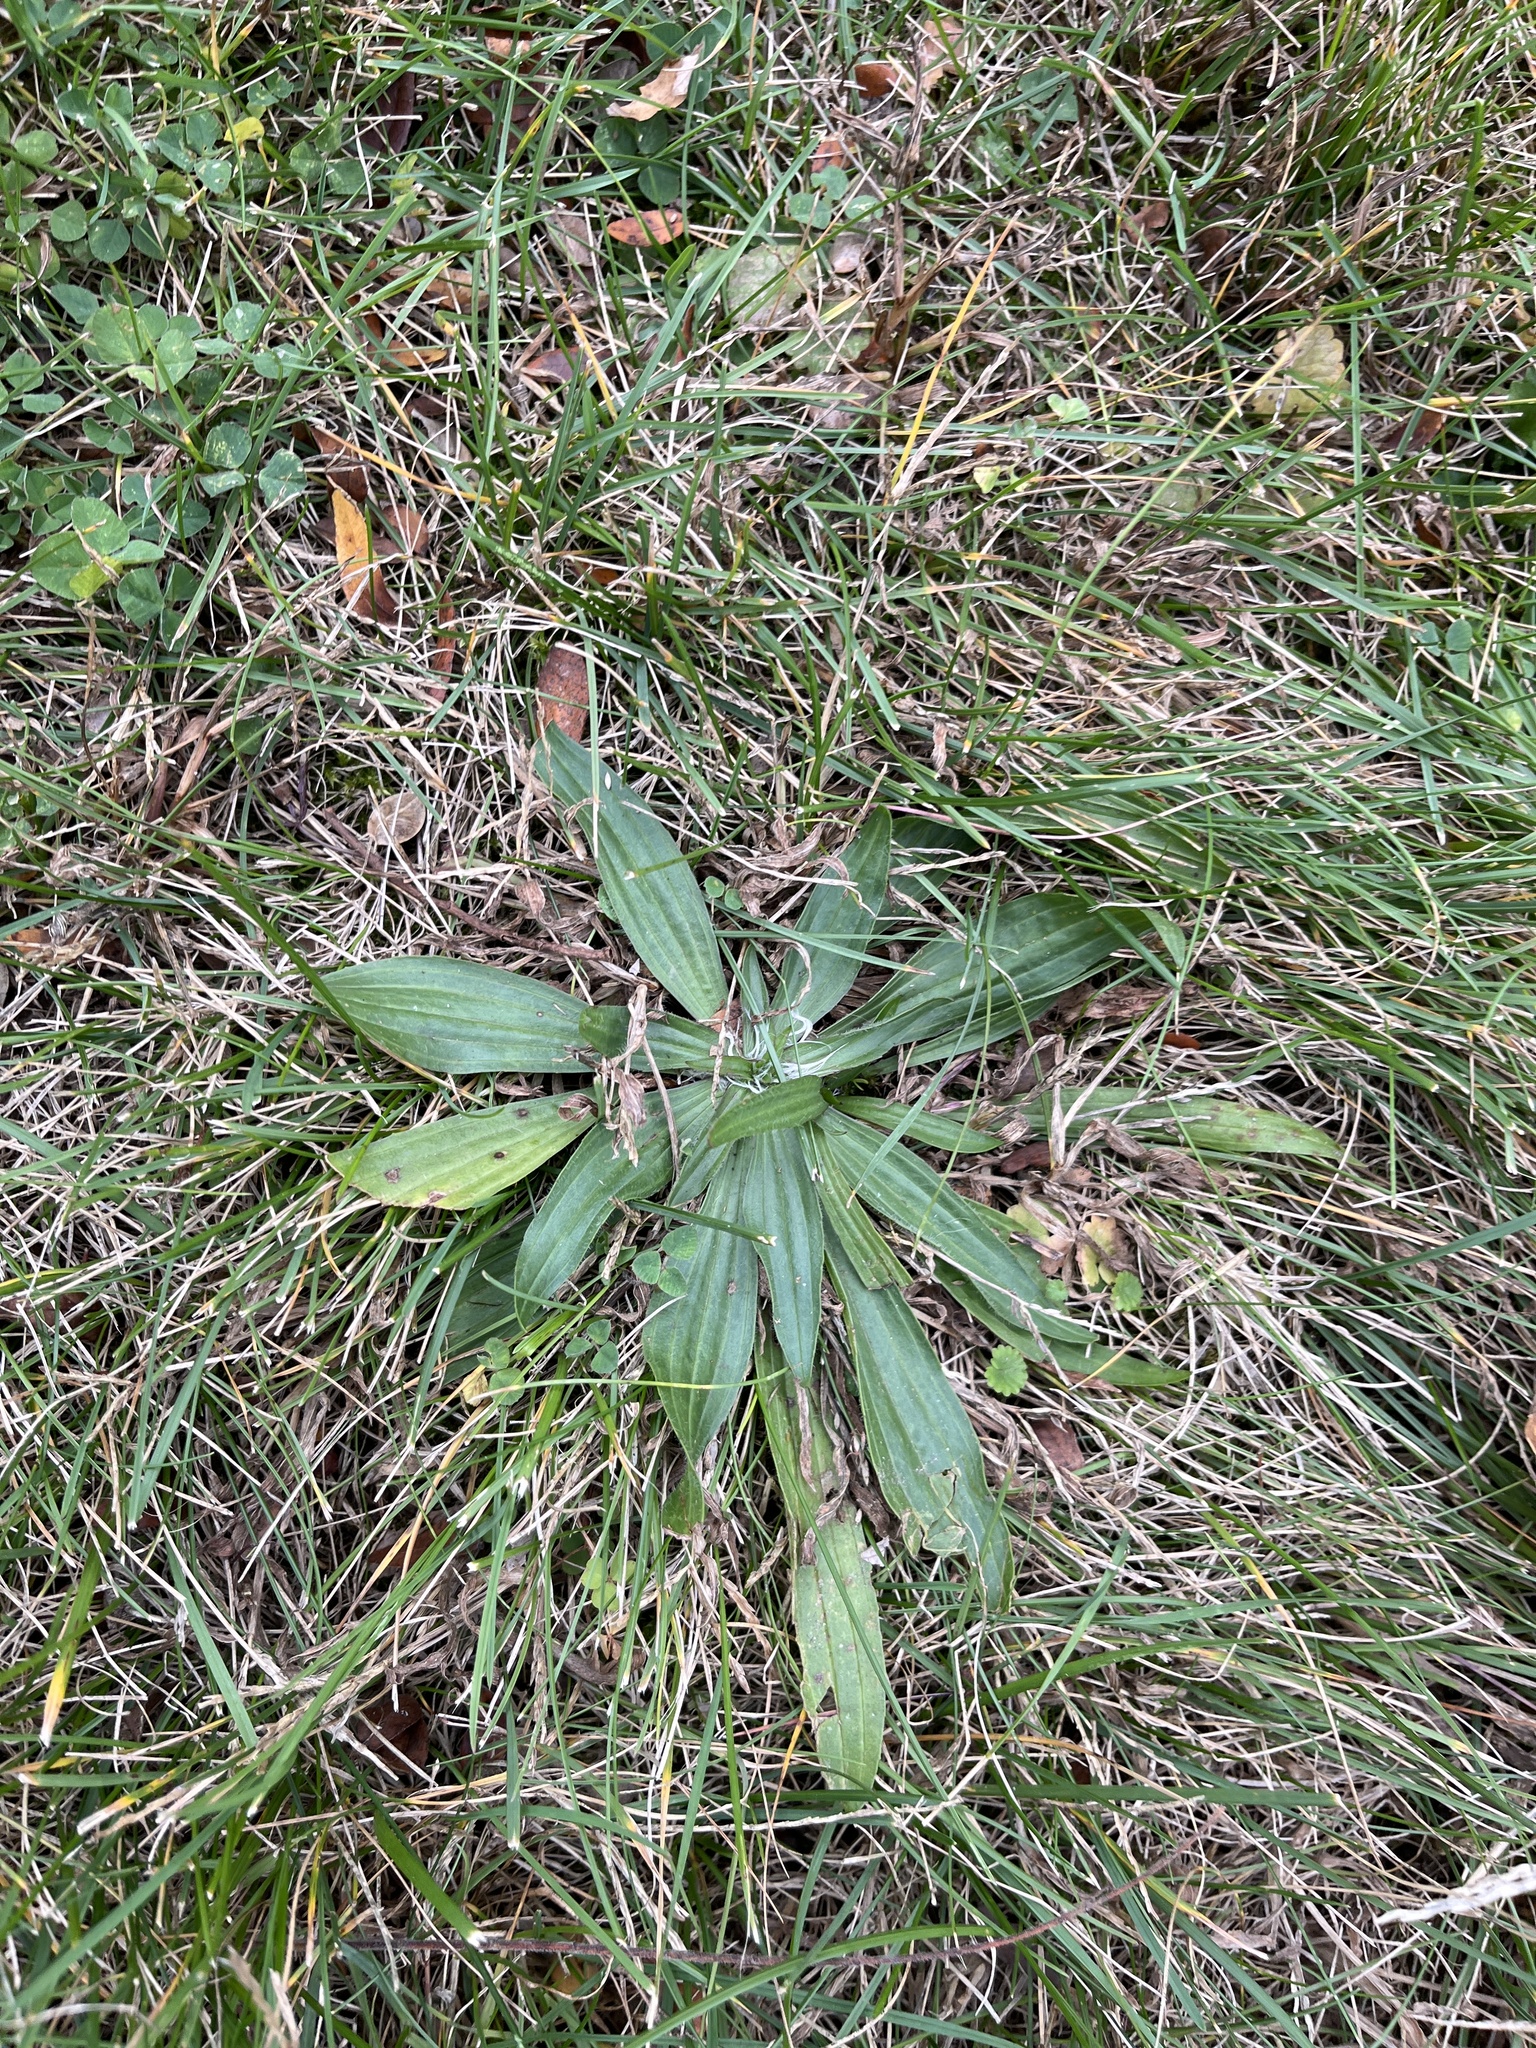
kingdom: Plantae
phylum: Tracheophyta
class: Magnoliopsida
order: Lamiales
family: Plantaginaceae
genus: Plantago
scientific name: Plantago lanceolata
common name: Ribwort plantain
